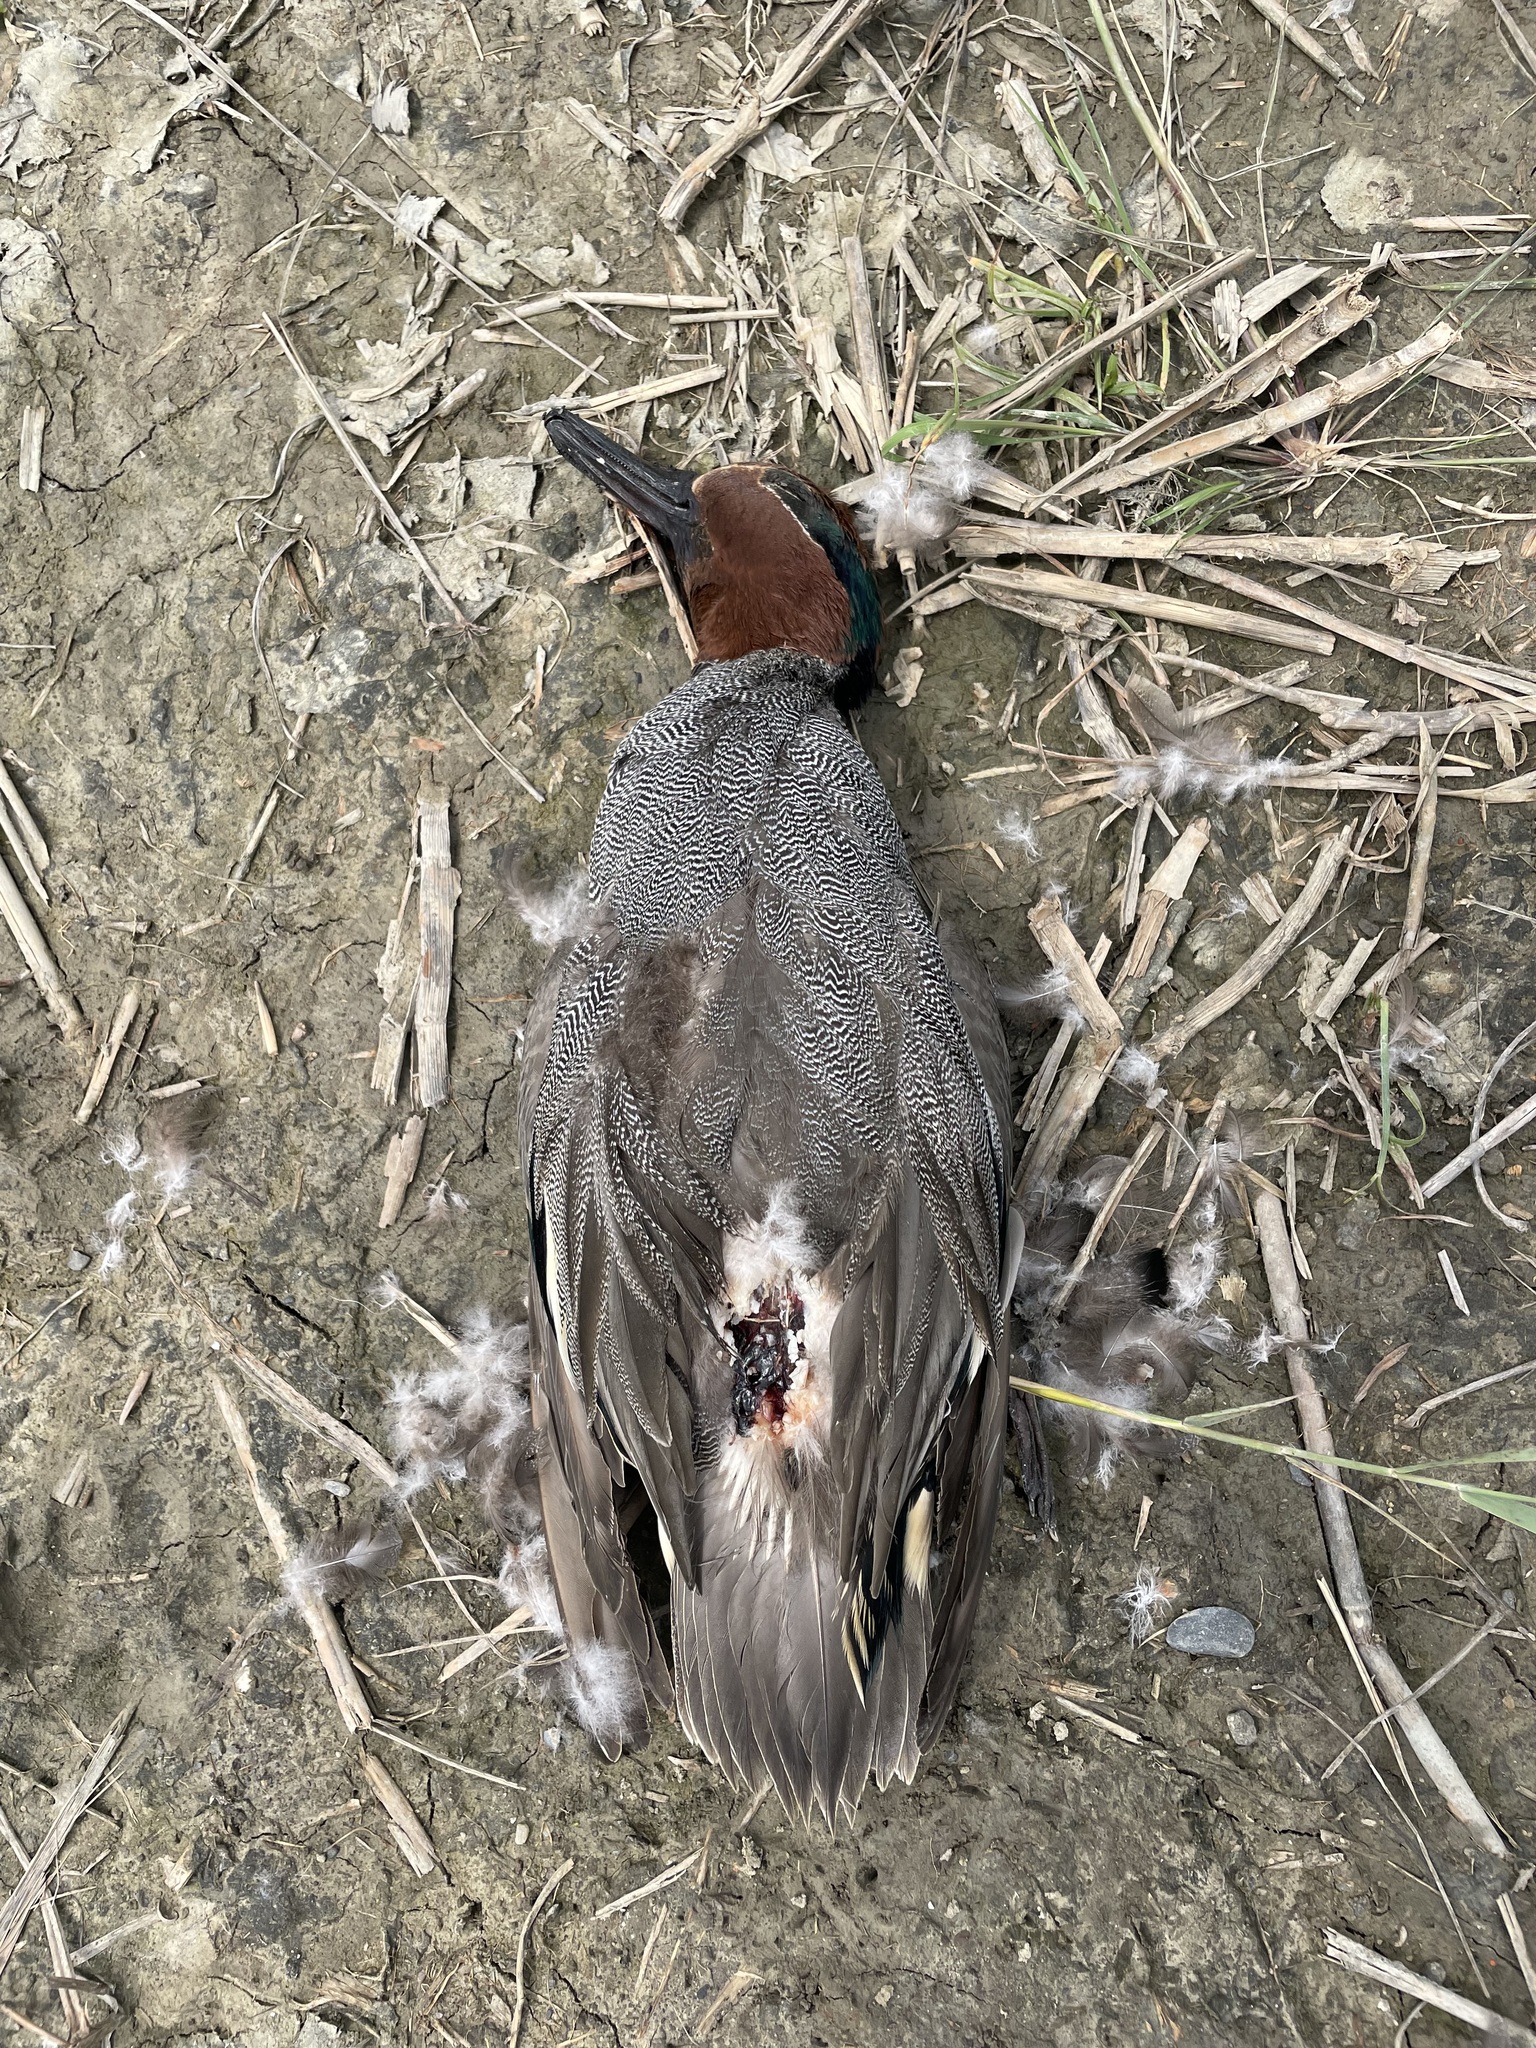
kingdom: Animalia
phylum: Chordata
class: Aves
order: Anseriformes
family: Anatidae
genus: Anas
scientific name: Anas crecca
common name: Eurasian teal
